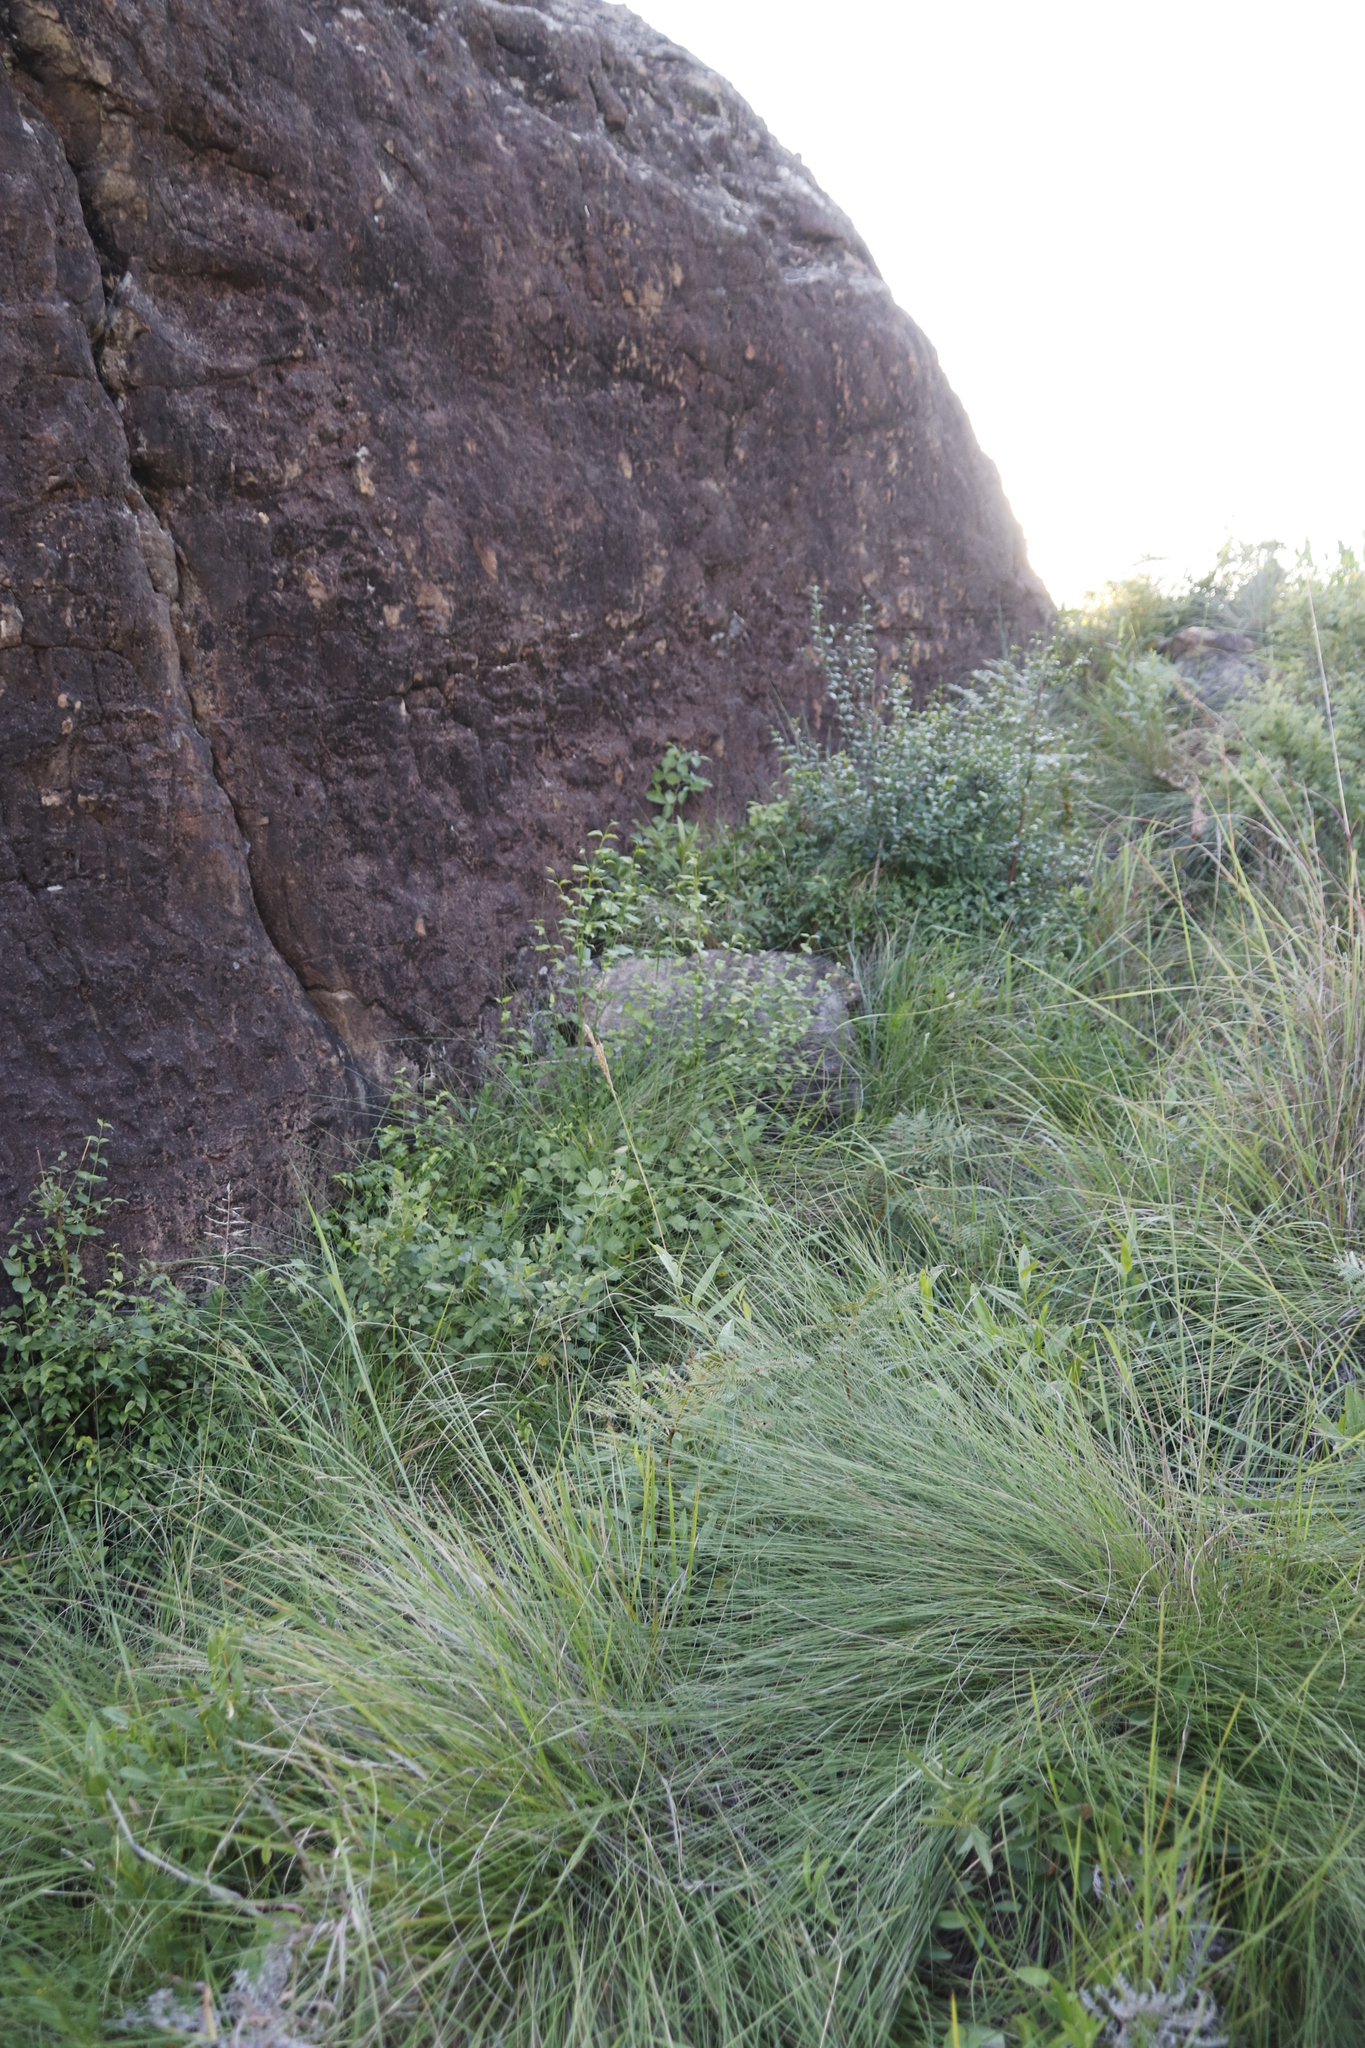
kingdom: Plantae
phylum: Tracheophyta
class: Magnoliopsida
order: Lamiales
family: Stilbaceae
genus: Halleria
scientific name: Halleria lucida
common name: Tree fuschia
